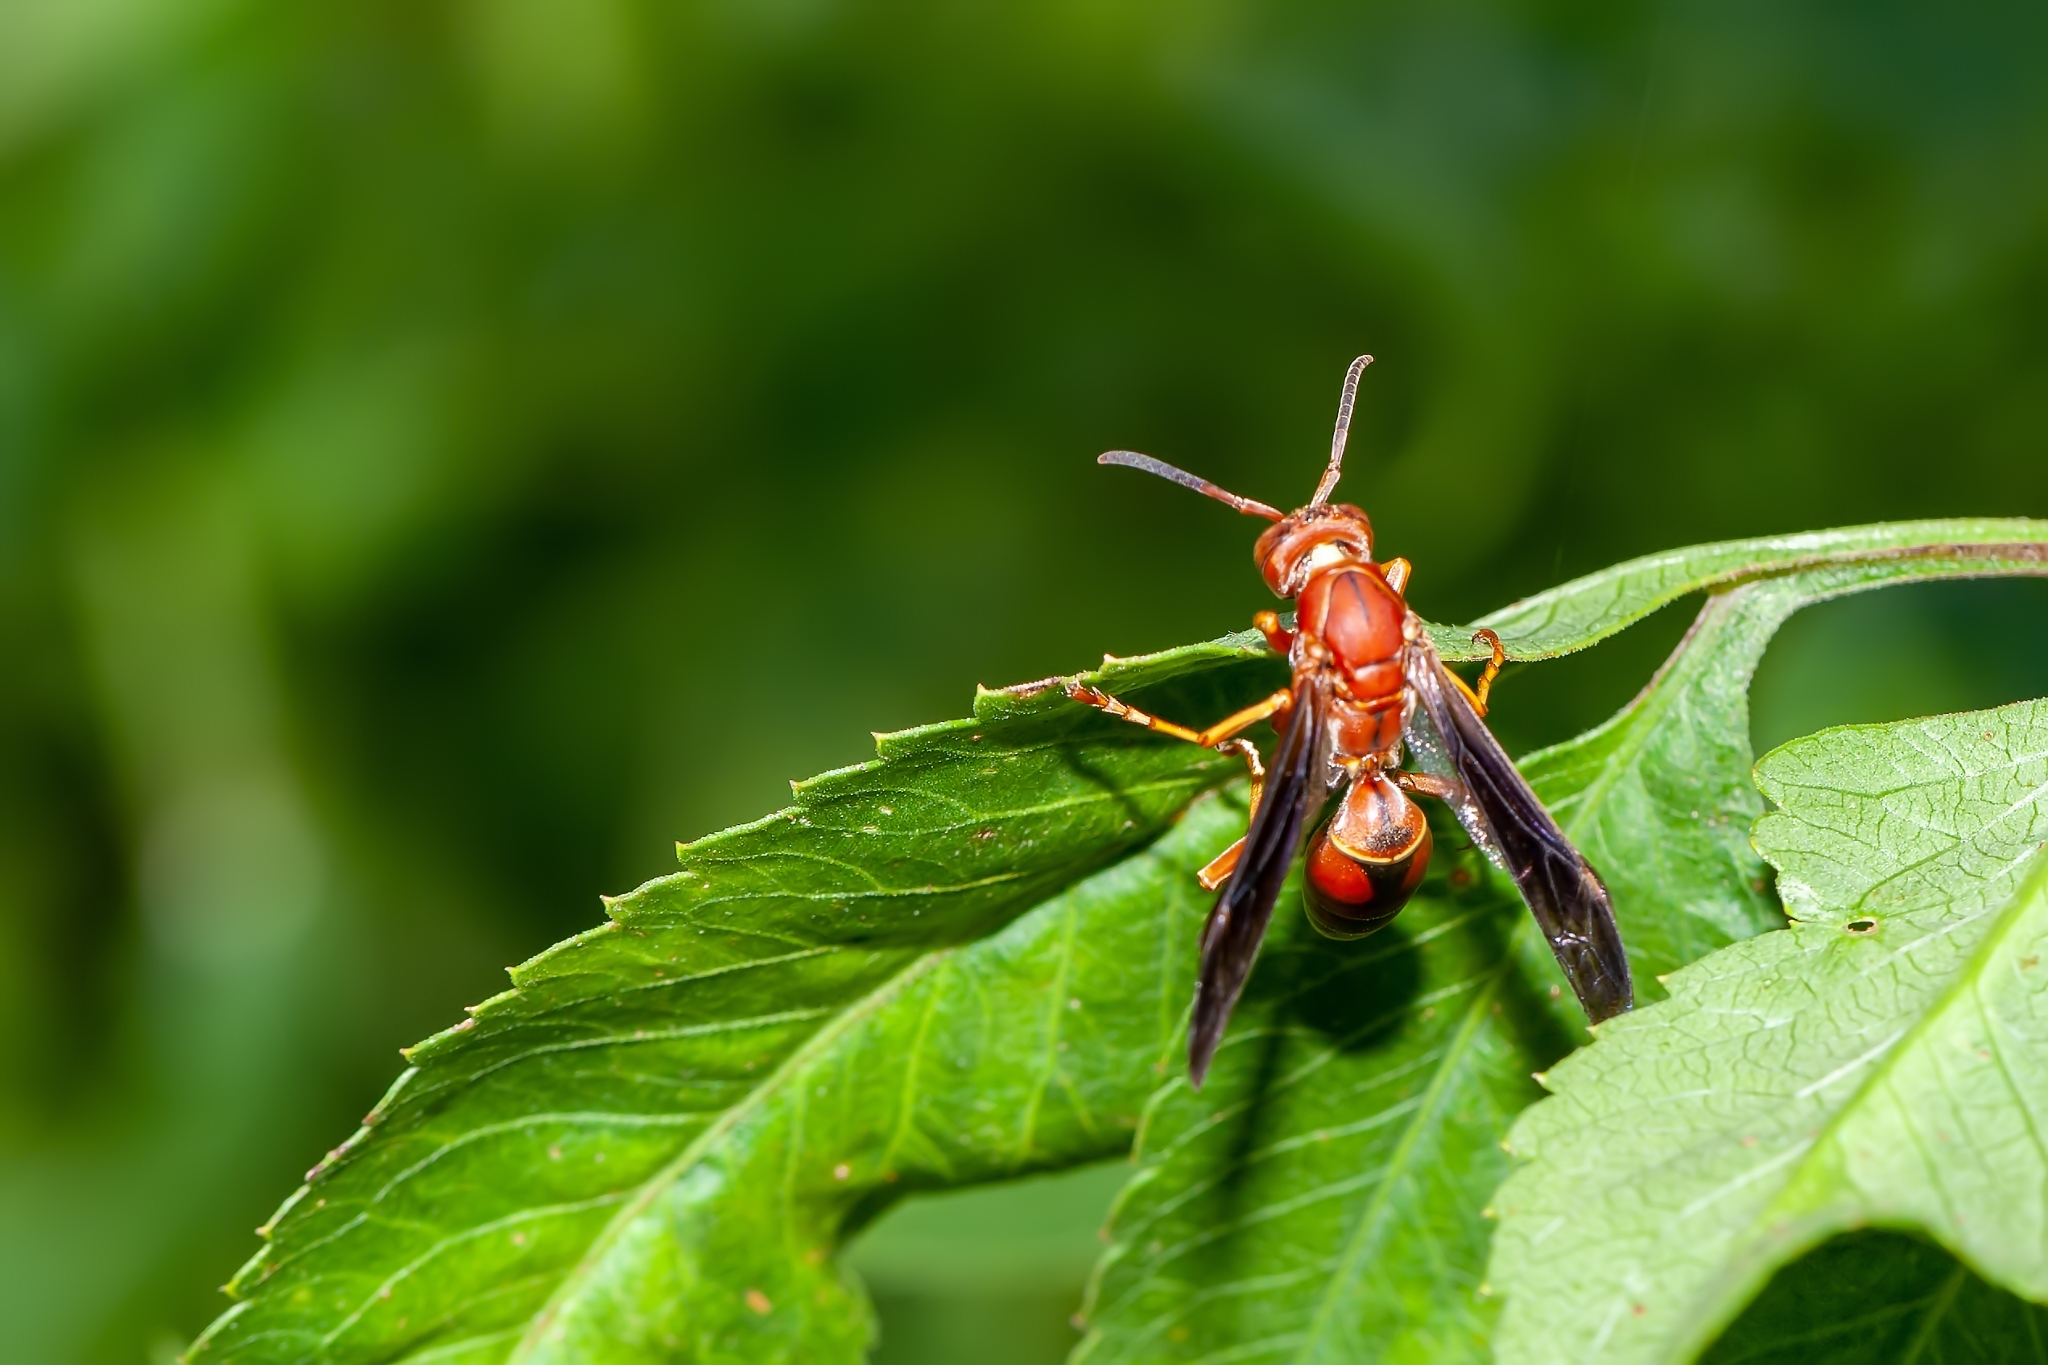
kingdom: Animalia
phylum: Arthropoda
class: Insecta
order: Hymenoptera
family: Eumenidae
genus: Polistes
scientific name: Polistes fuscatus
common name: Dark paper wasp
